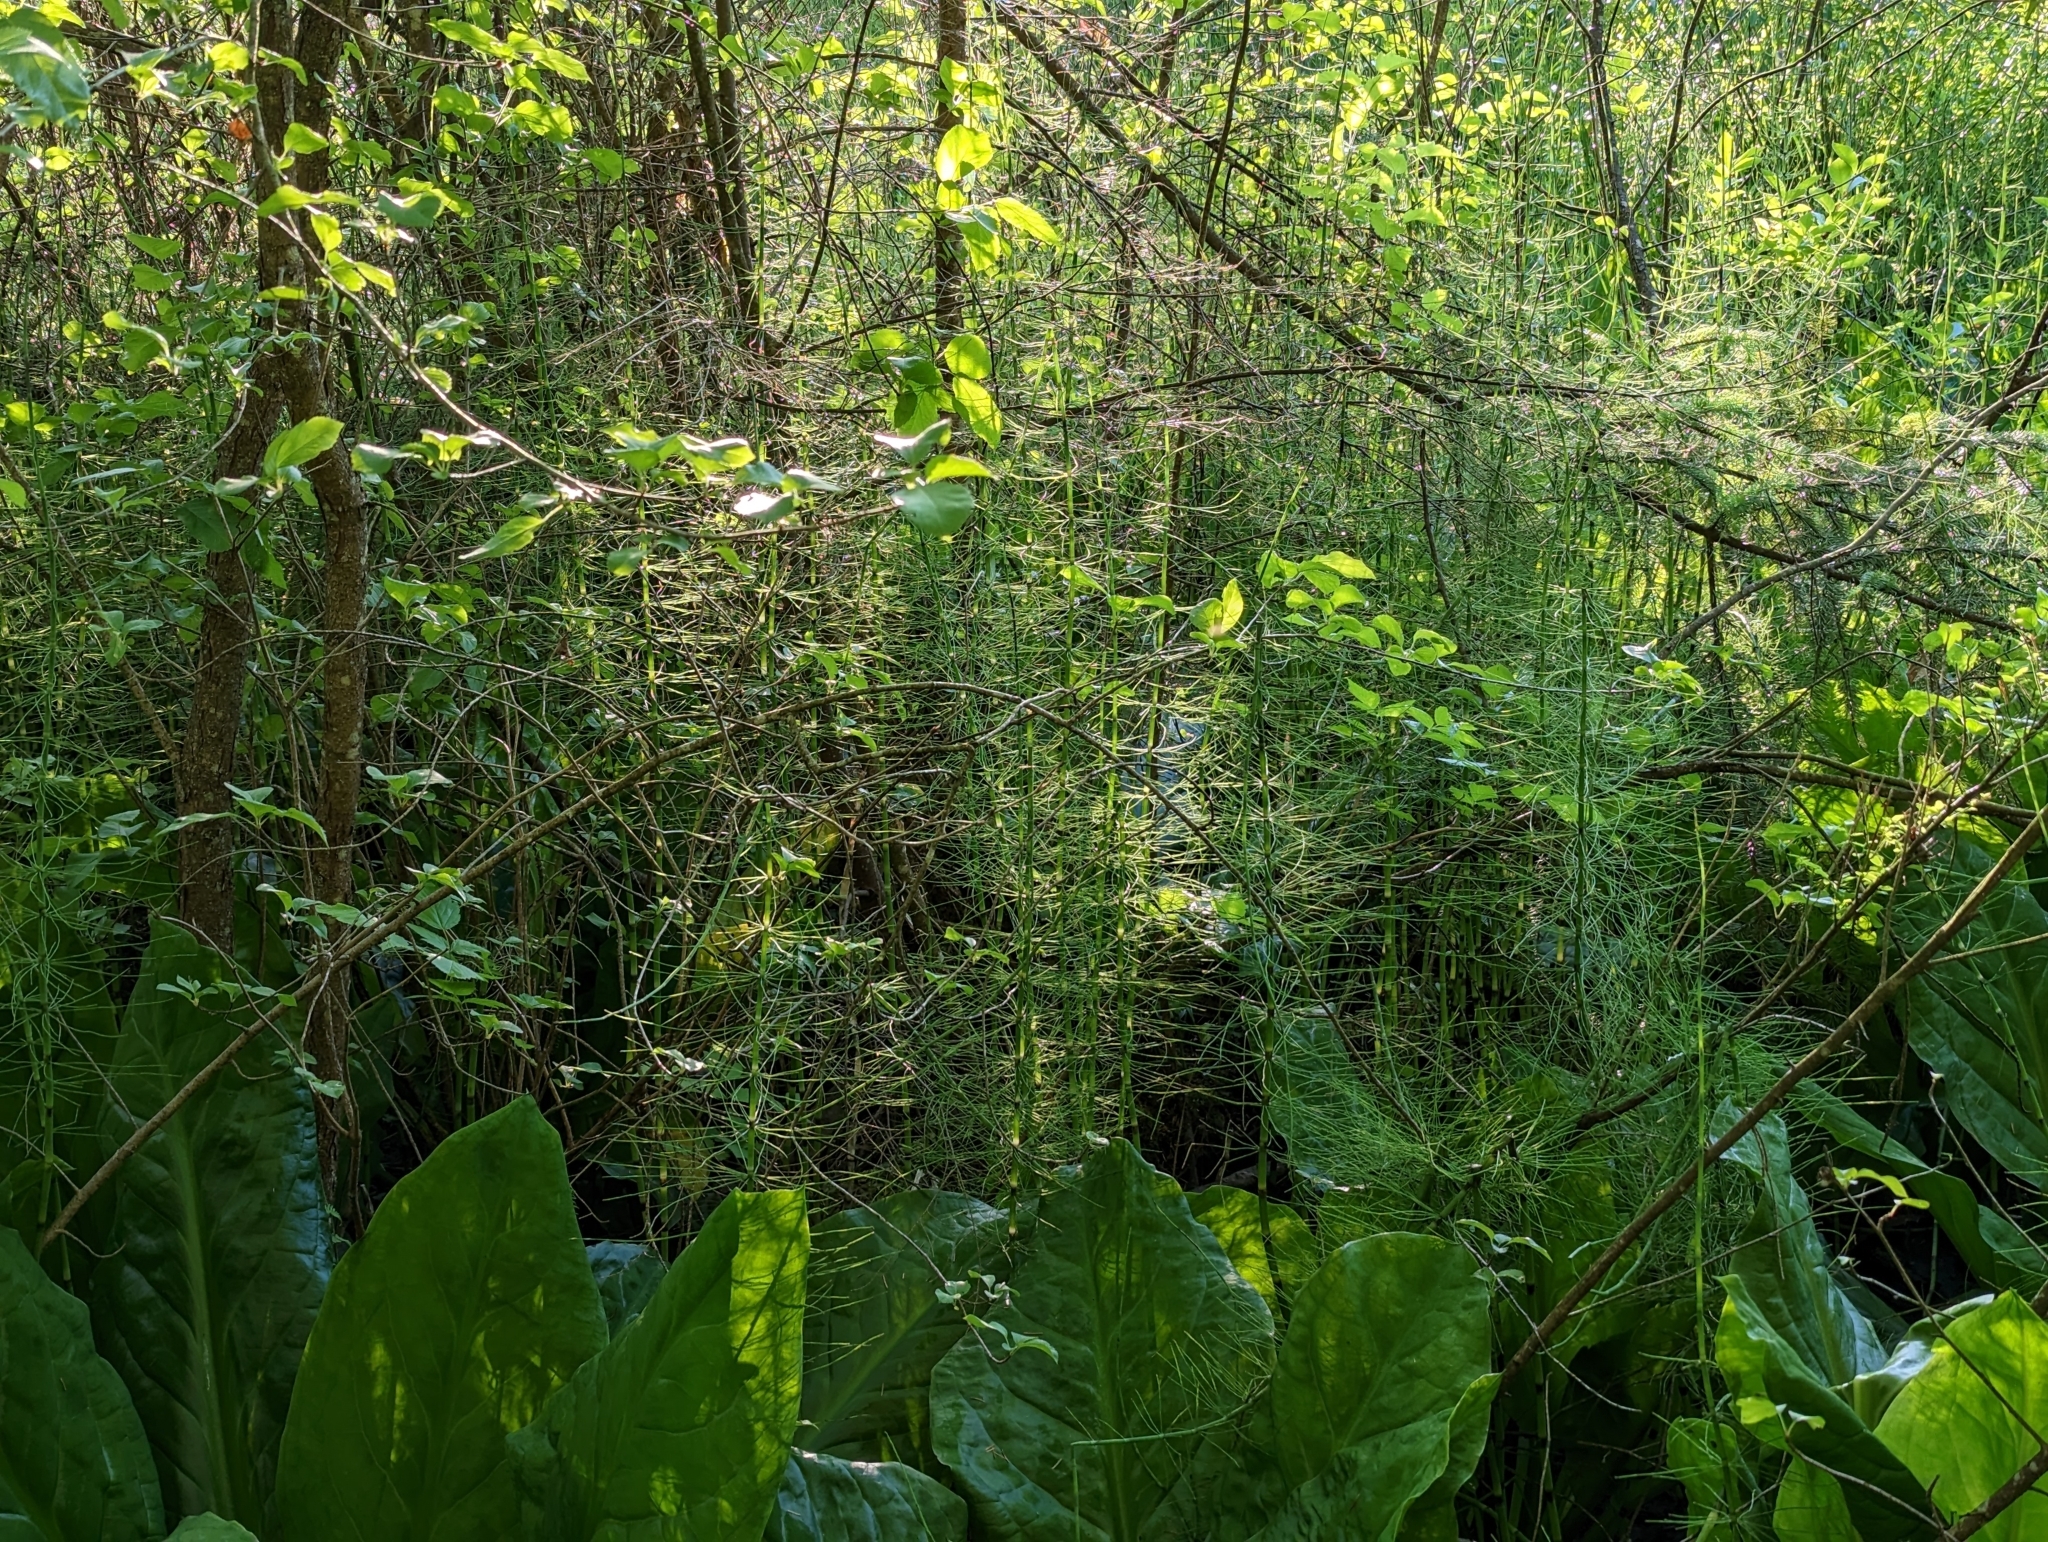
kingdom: Plantae
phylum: Tracheophyta
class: Polypodiopsida
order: Equisetales
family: Equisetaceae
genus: Equisetum
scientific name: Equisetum fluviatile
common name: Water horsetail
